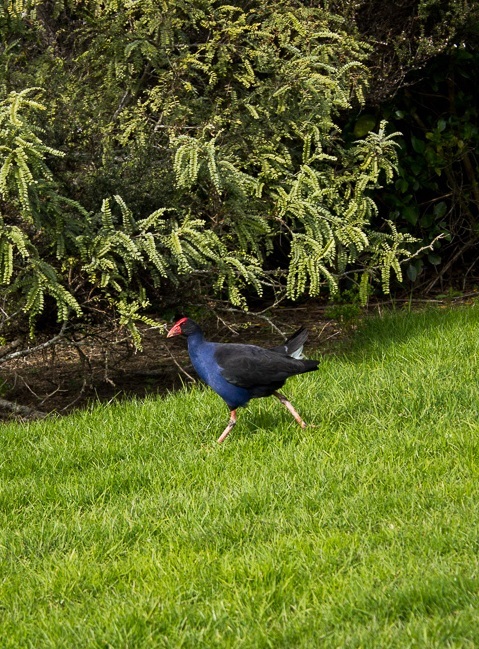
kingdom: Animalia
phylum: Chordata
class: Aves
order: Gruiformes
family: Rallidae
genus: Porphyrio
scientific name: Porphyrio melanotus
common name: Australasian swamphen
